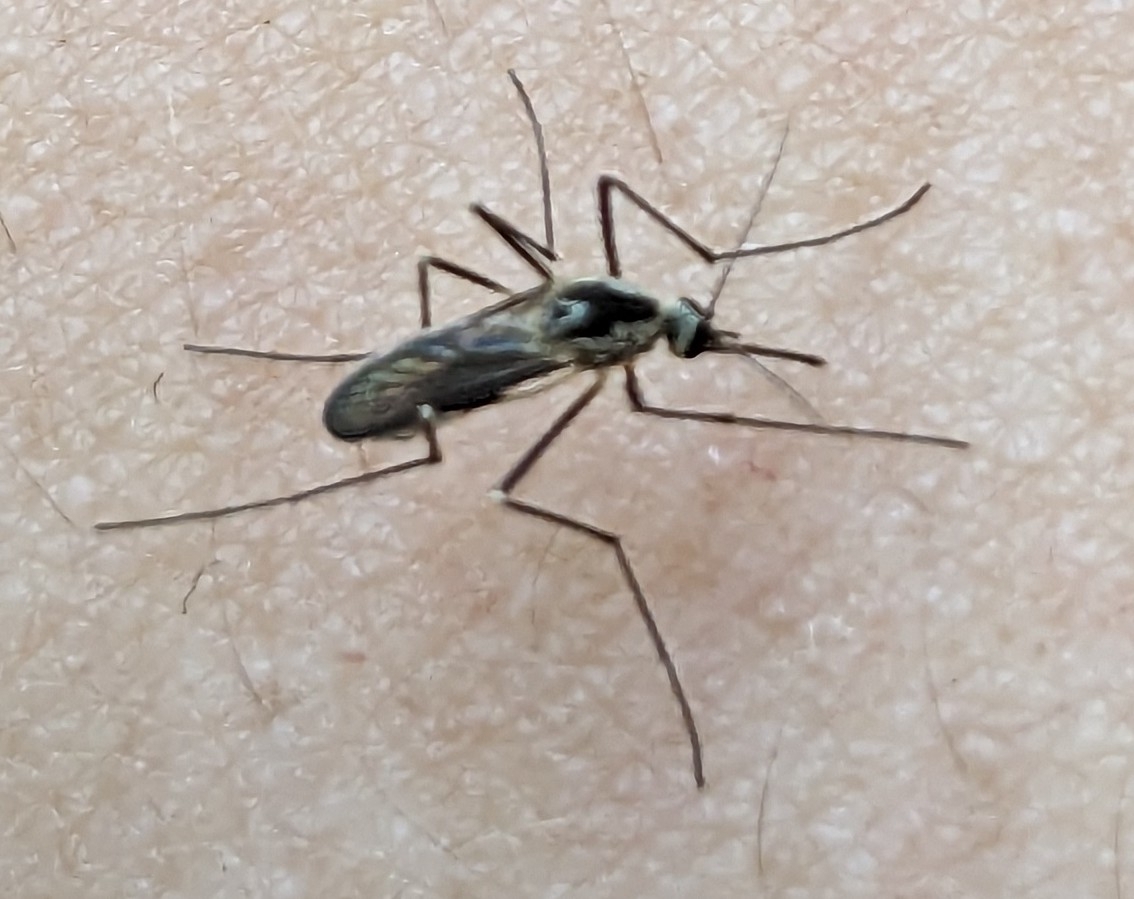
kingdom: Animalia
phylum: Arthropoda
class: Insecta
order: Diptera
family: Culicidae
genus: Aedes
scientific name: Aedes triseriatus
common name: Eastern treehole mosquito
